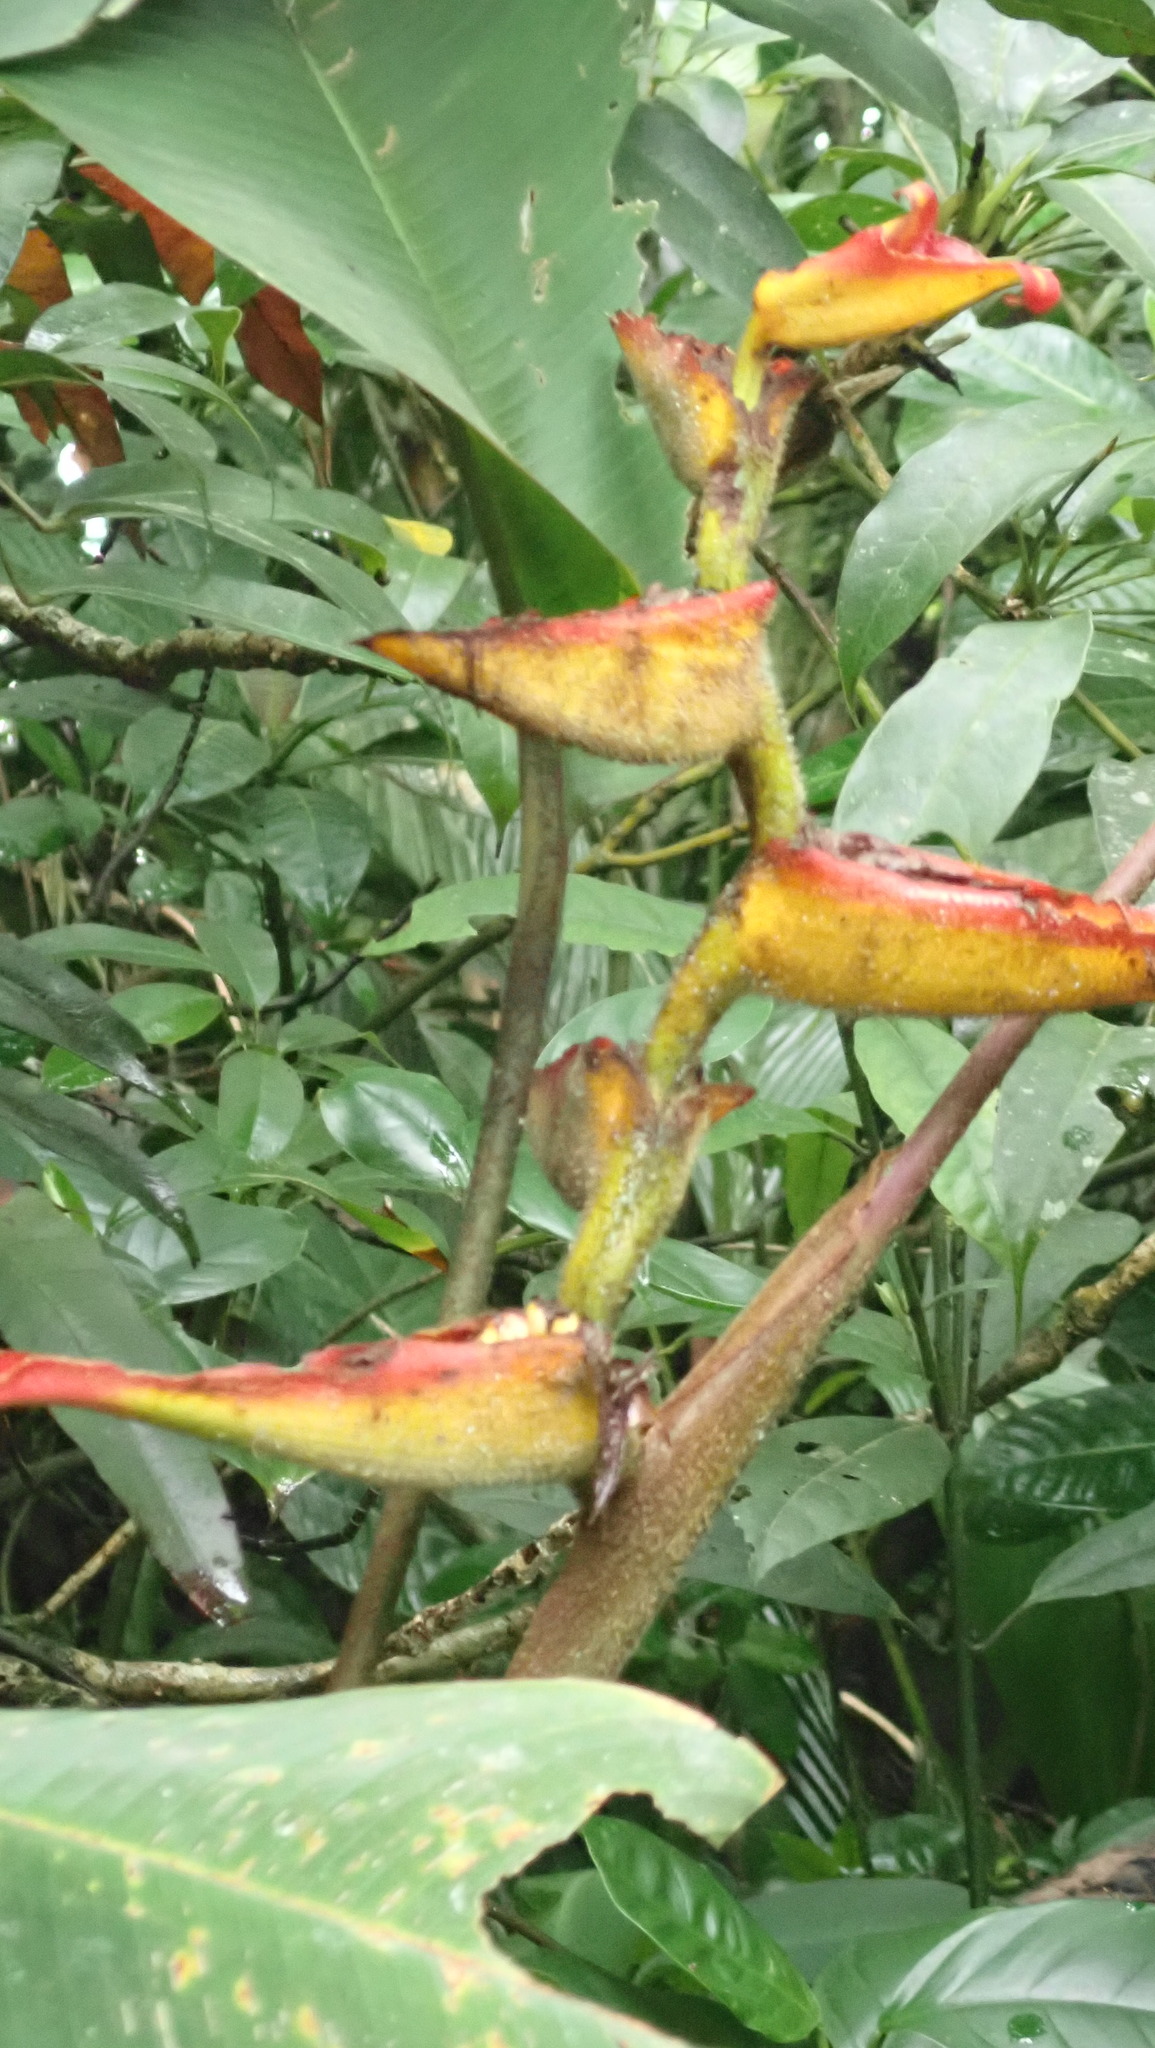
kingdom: Plantae
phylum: Tracheophyta
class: Liliopsida
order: Zingiberales
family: Heliconiaceae
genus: Heliconia
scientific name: Heliconia irrasa
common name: Wild plantain
